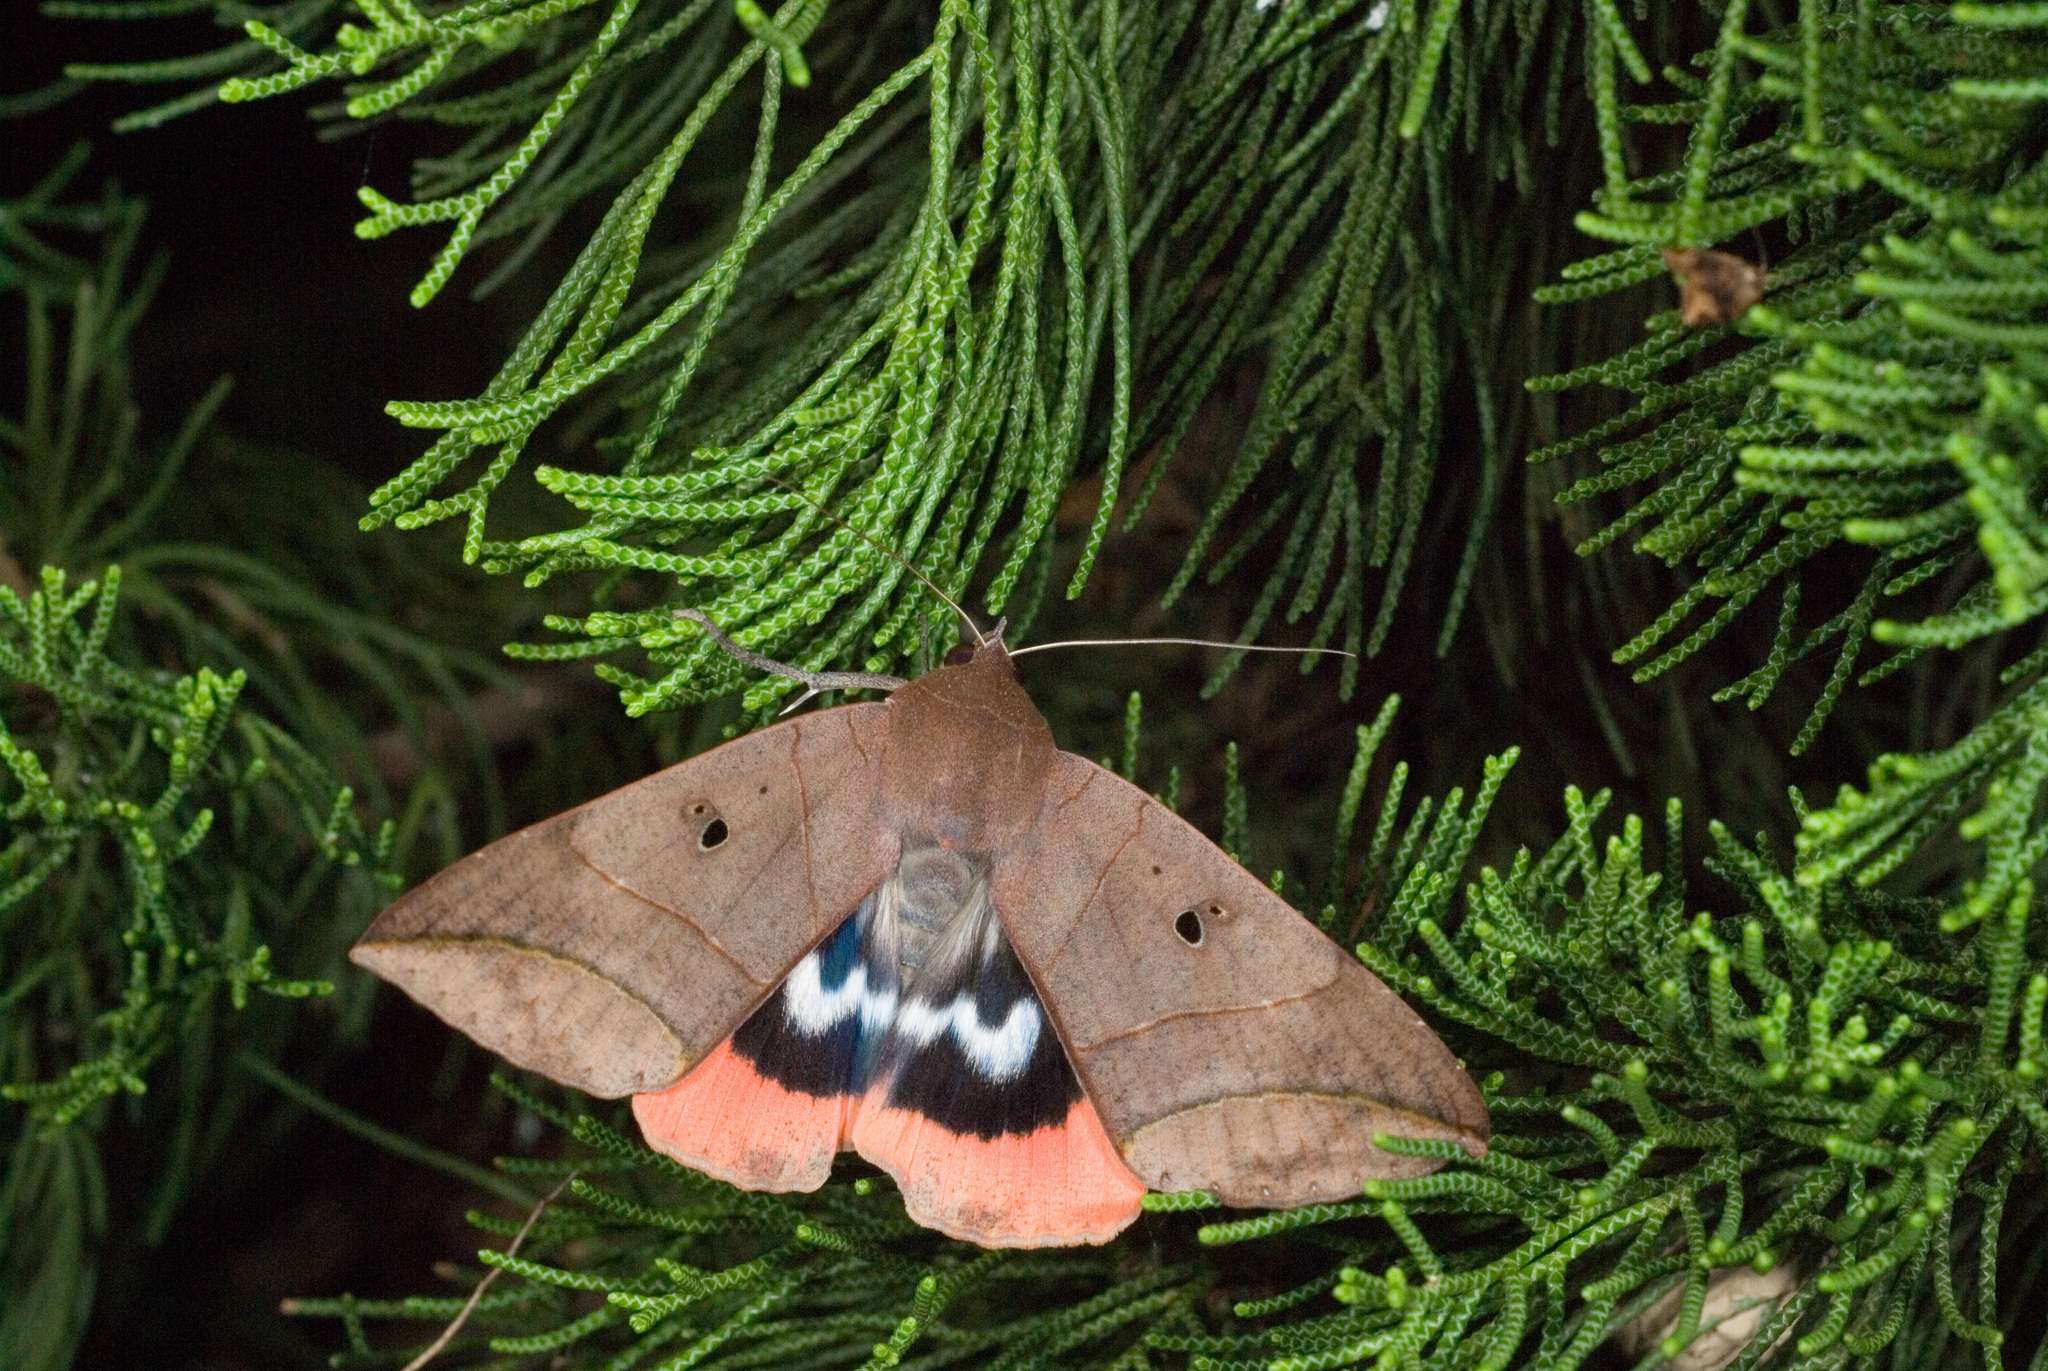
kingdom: Animalia
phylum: Arthropoda
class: Insecta
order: Lepidoptera
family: Erebidae
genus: Thyas
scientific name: Thyas juno
